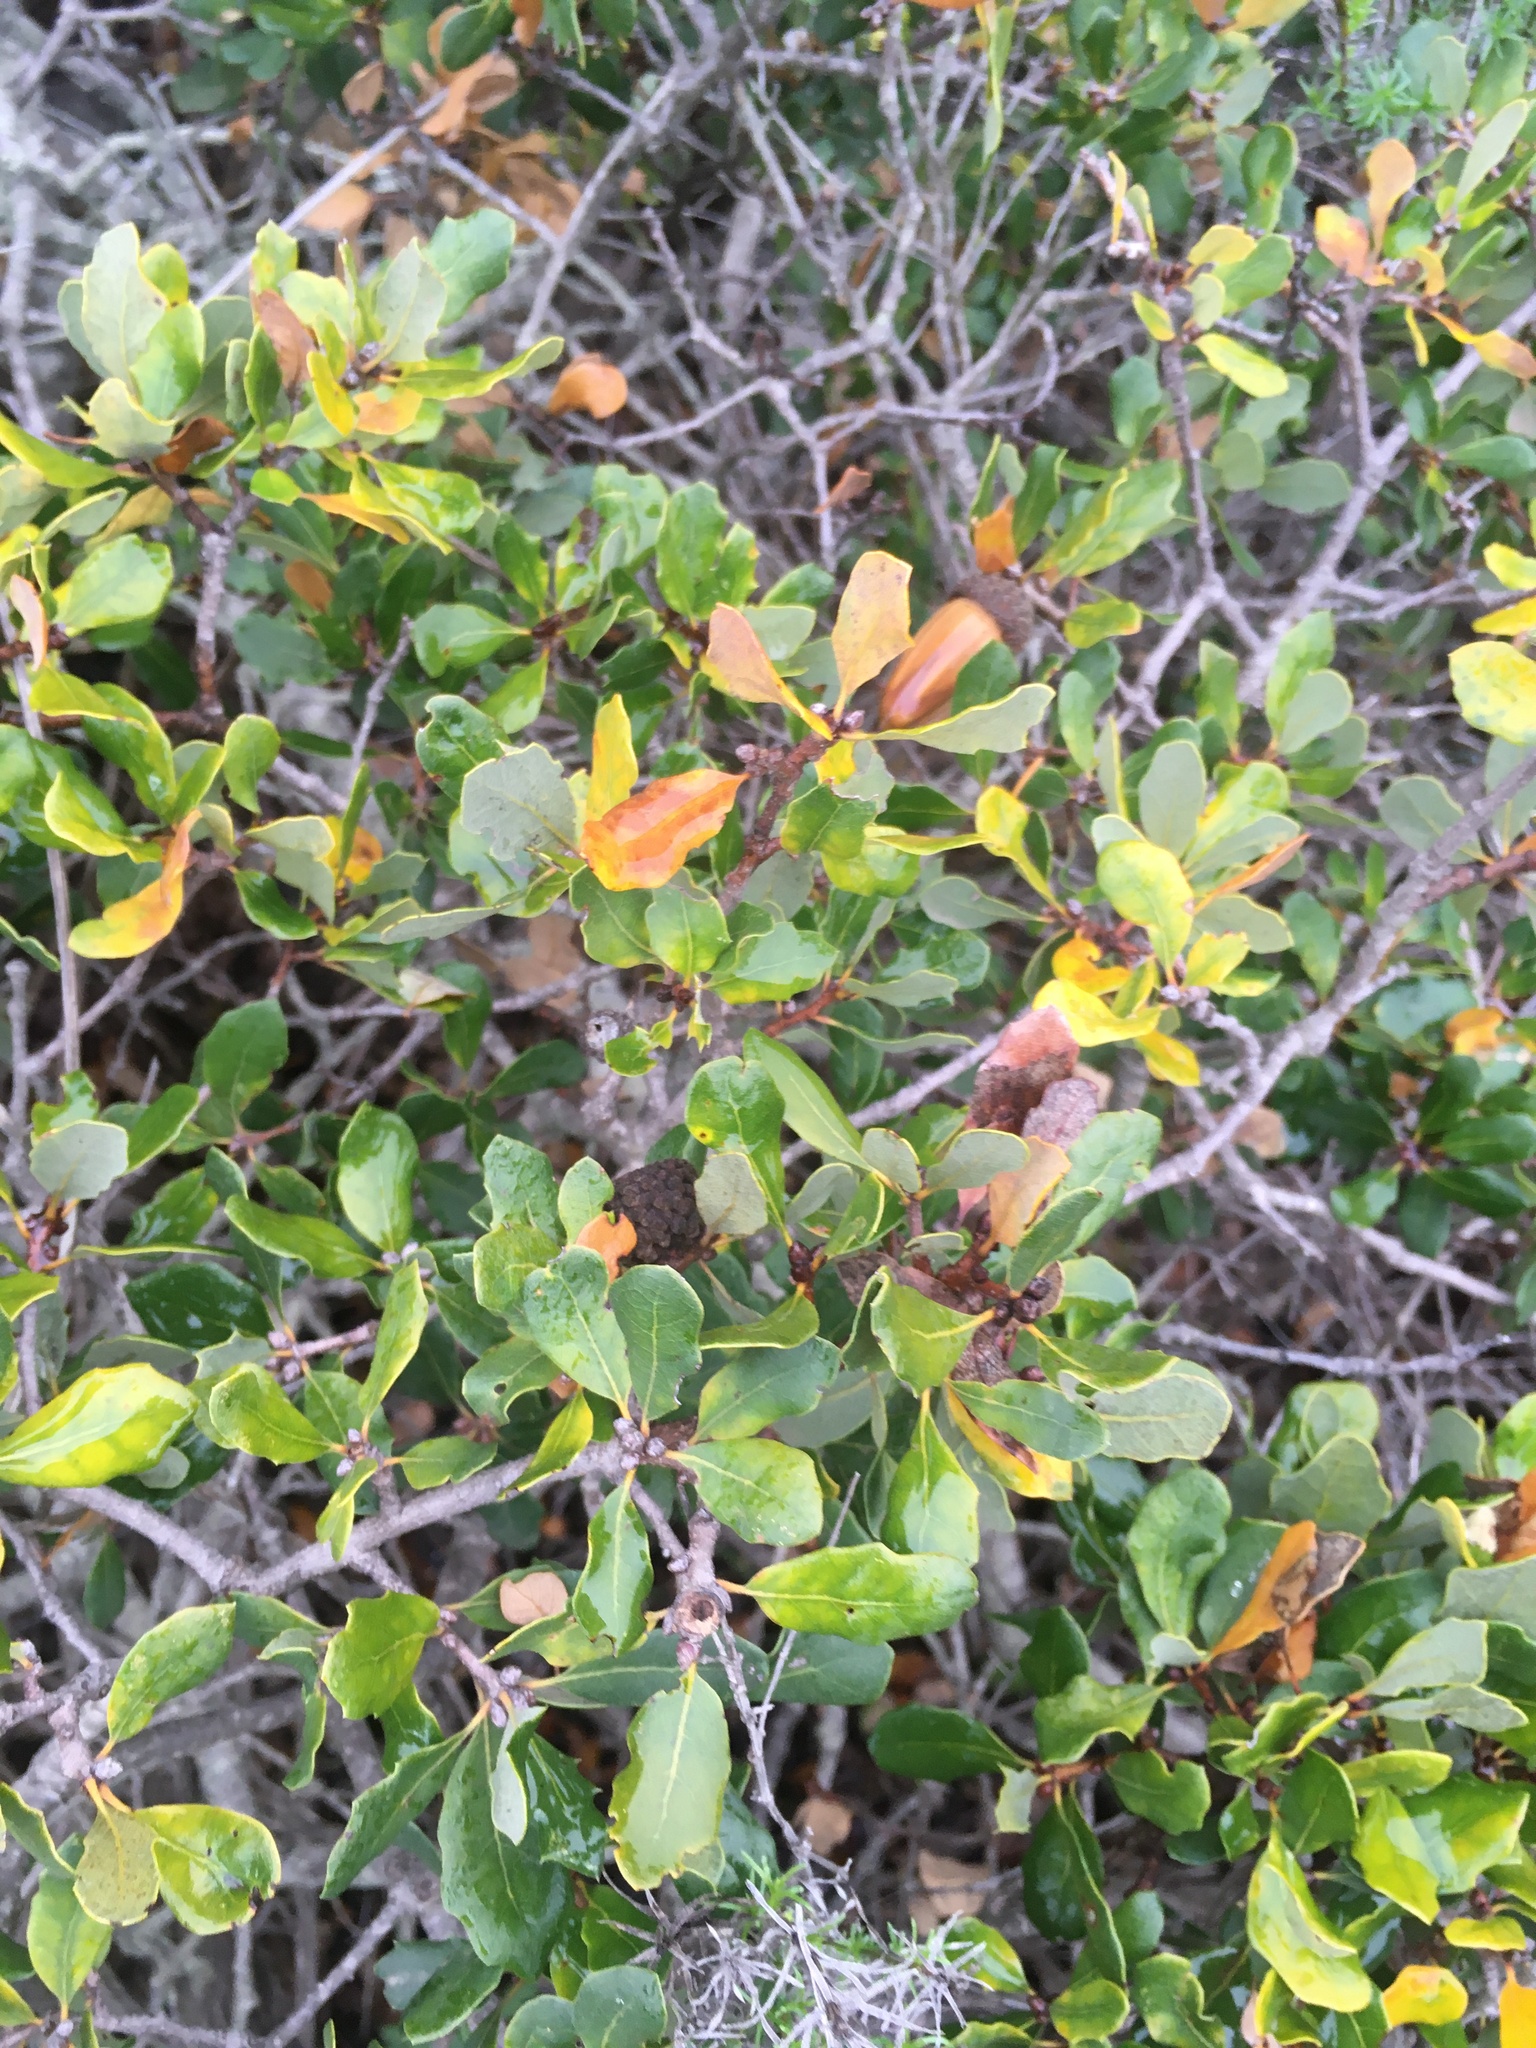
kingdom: Plantae
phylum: Tracheophyta
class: Magnoliopsida
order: Fagales
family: Fagaceae
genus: Quercus
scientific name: Quercus pacifica
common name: Channel island scrub oak
